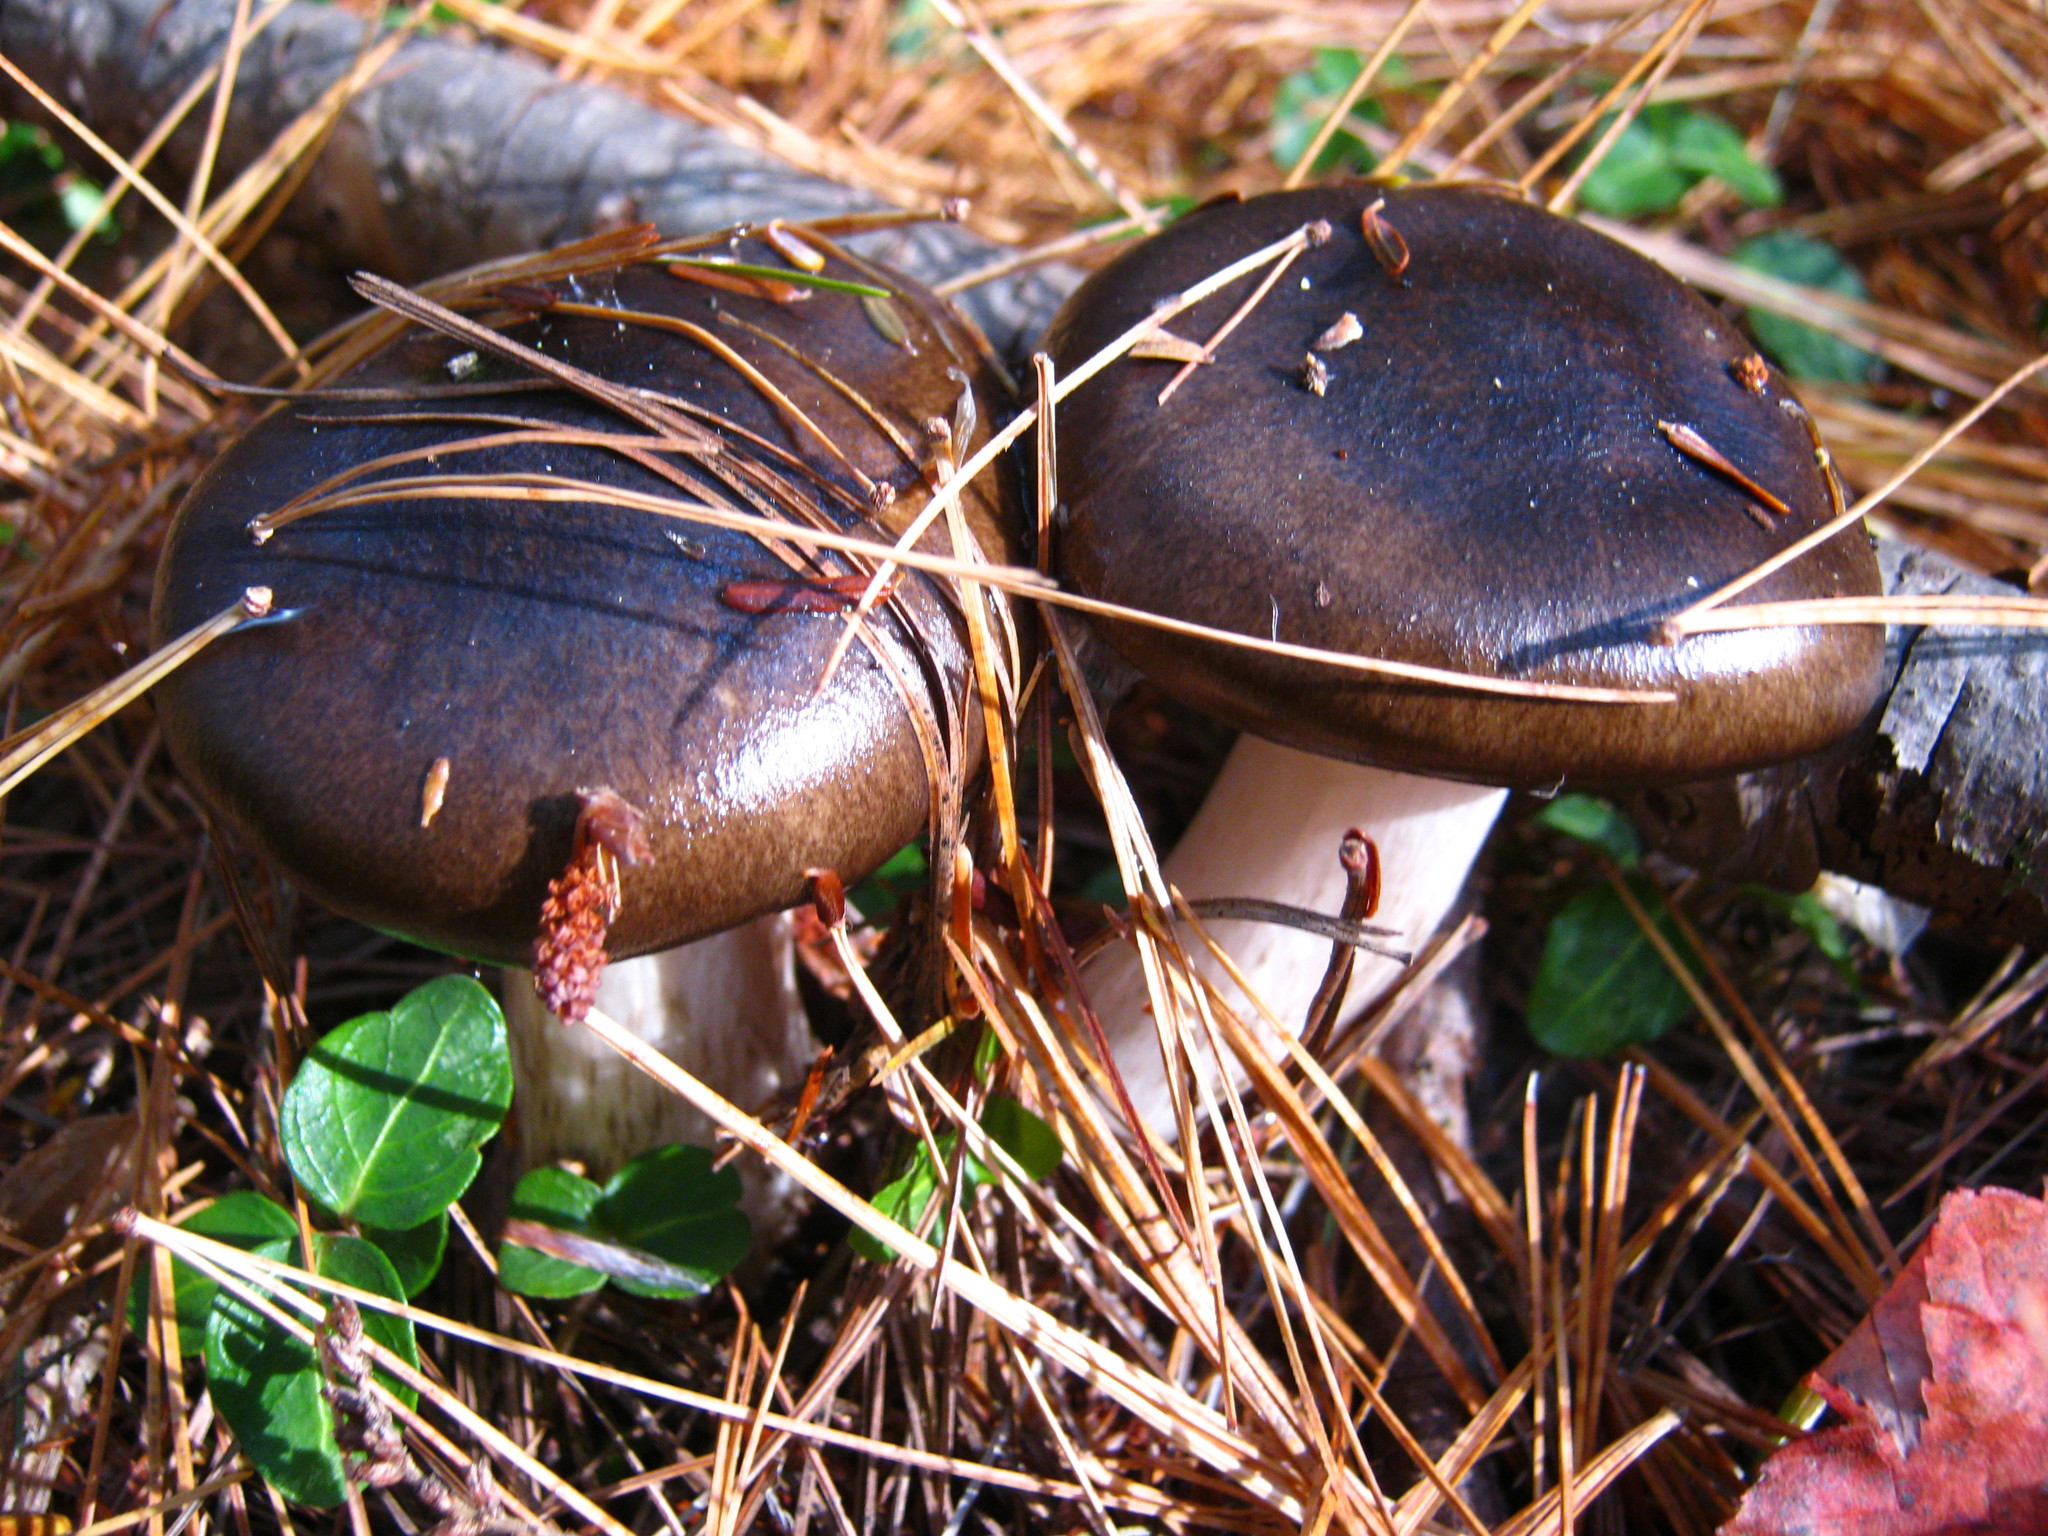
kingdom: Fungi
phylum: Basidiomycota
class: Agaricomycetes
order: Agaricales
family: Hygrophoraceae
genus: Hygrophorus
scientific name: Hygrophorus fuligineus
